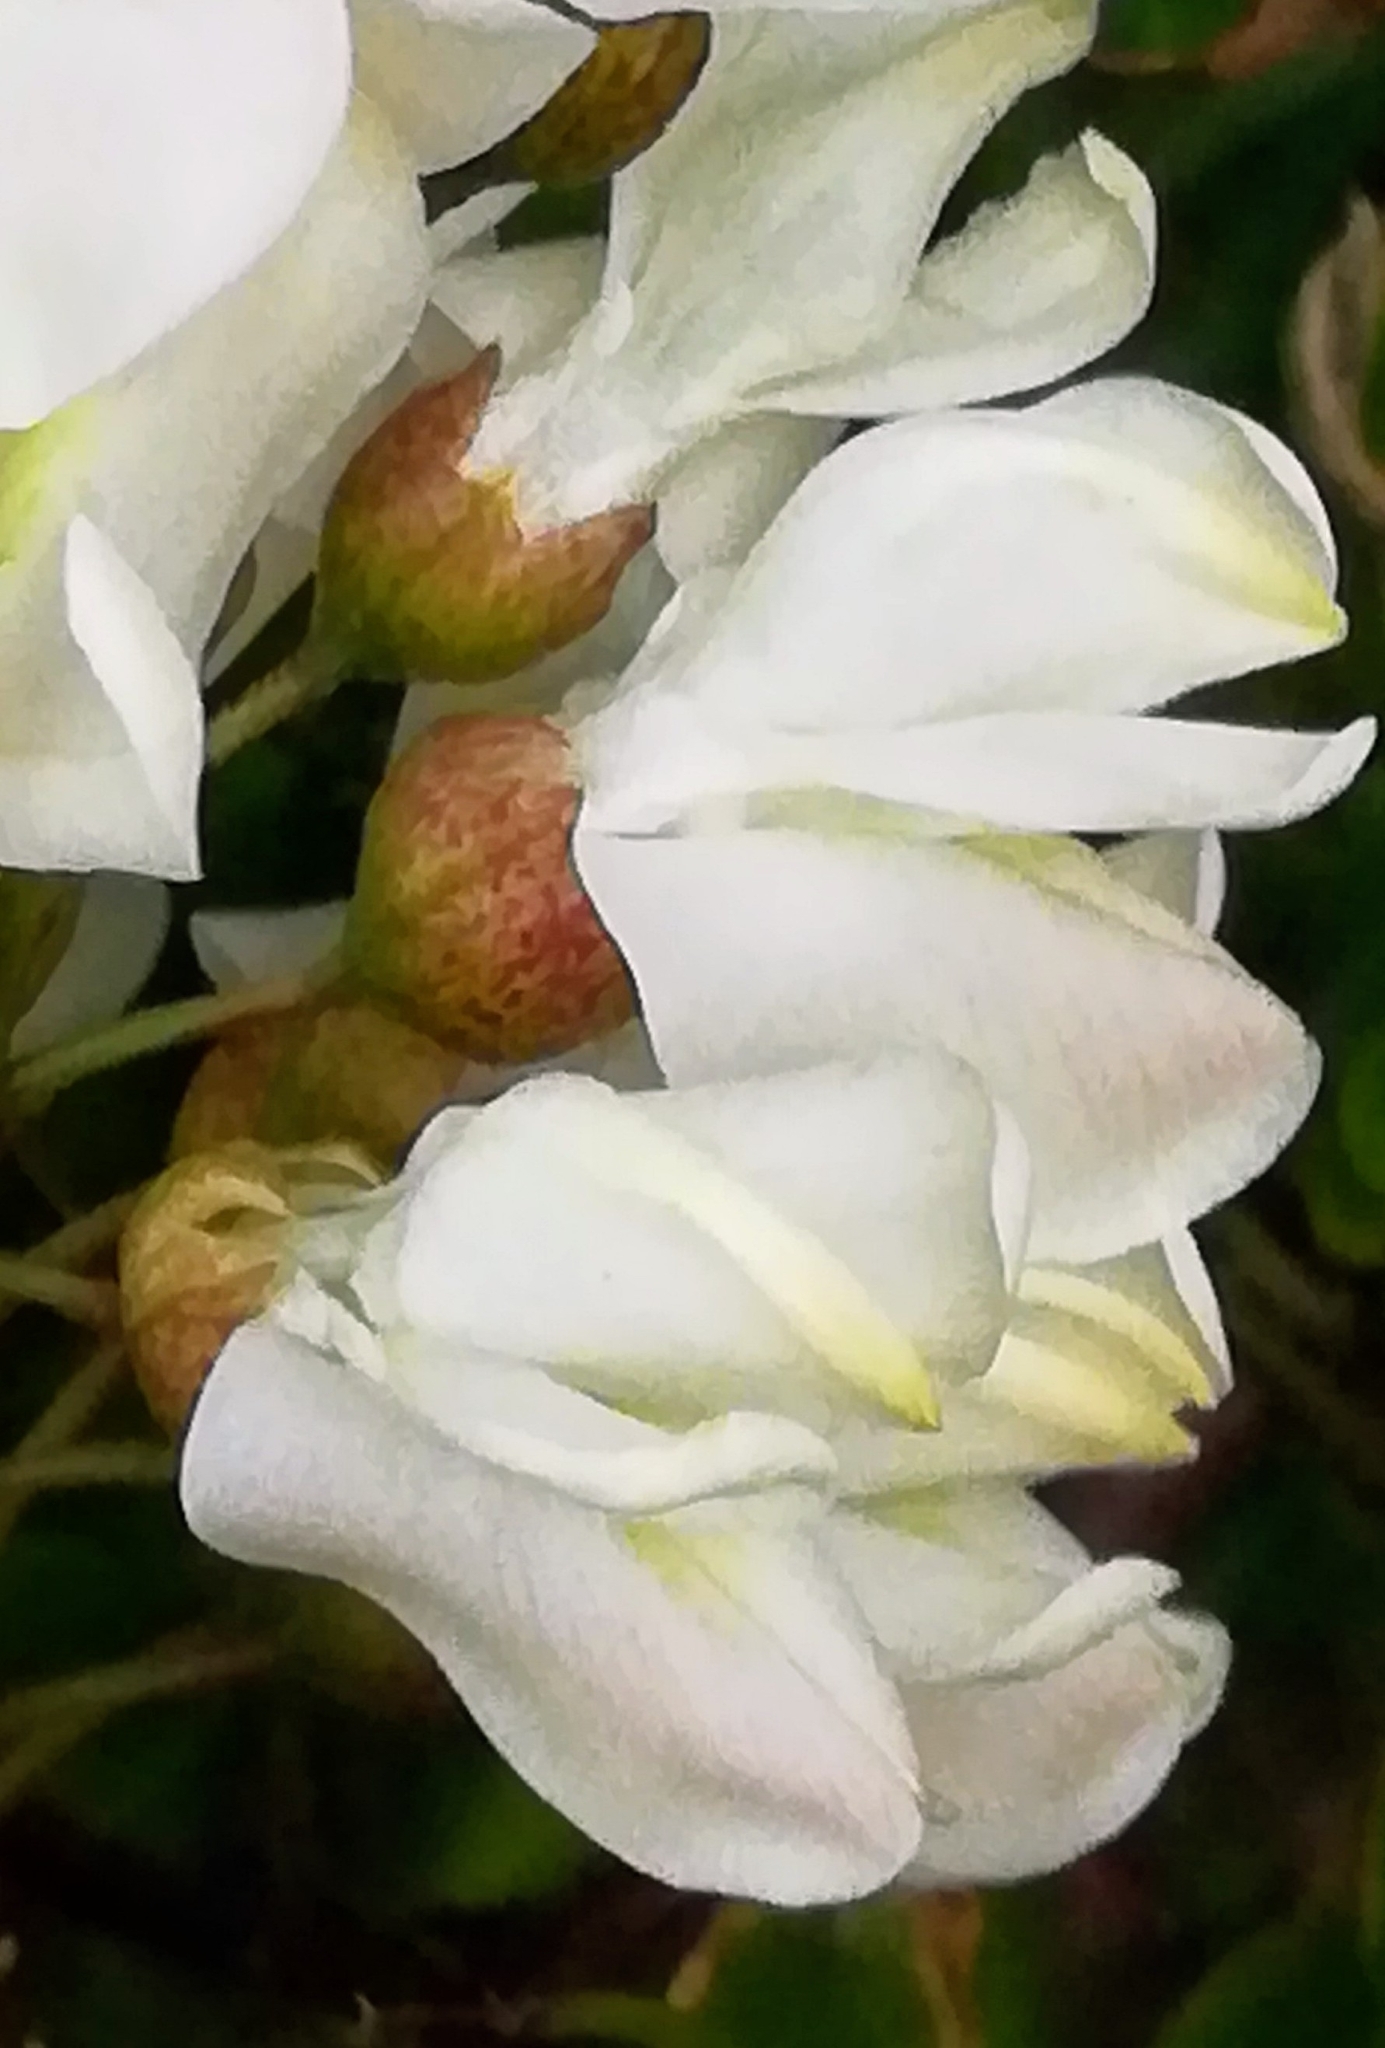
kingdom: Plantae
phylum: Tracheophyta
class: Magnoliopsida
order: Fabales
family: Fabaceae
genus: Robinia
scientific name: Robinia pseudoacacia
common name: Black locust
